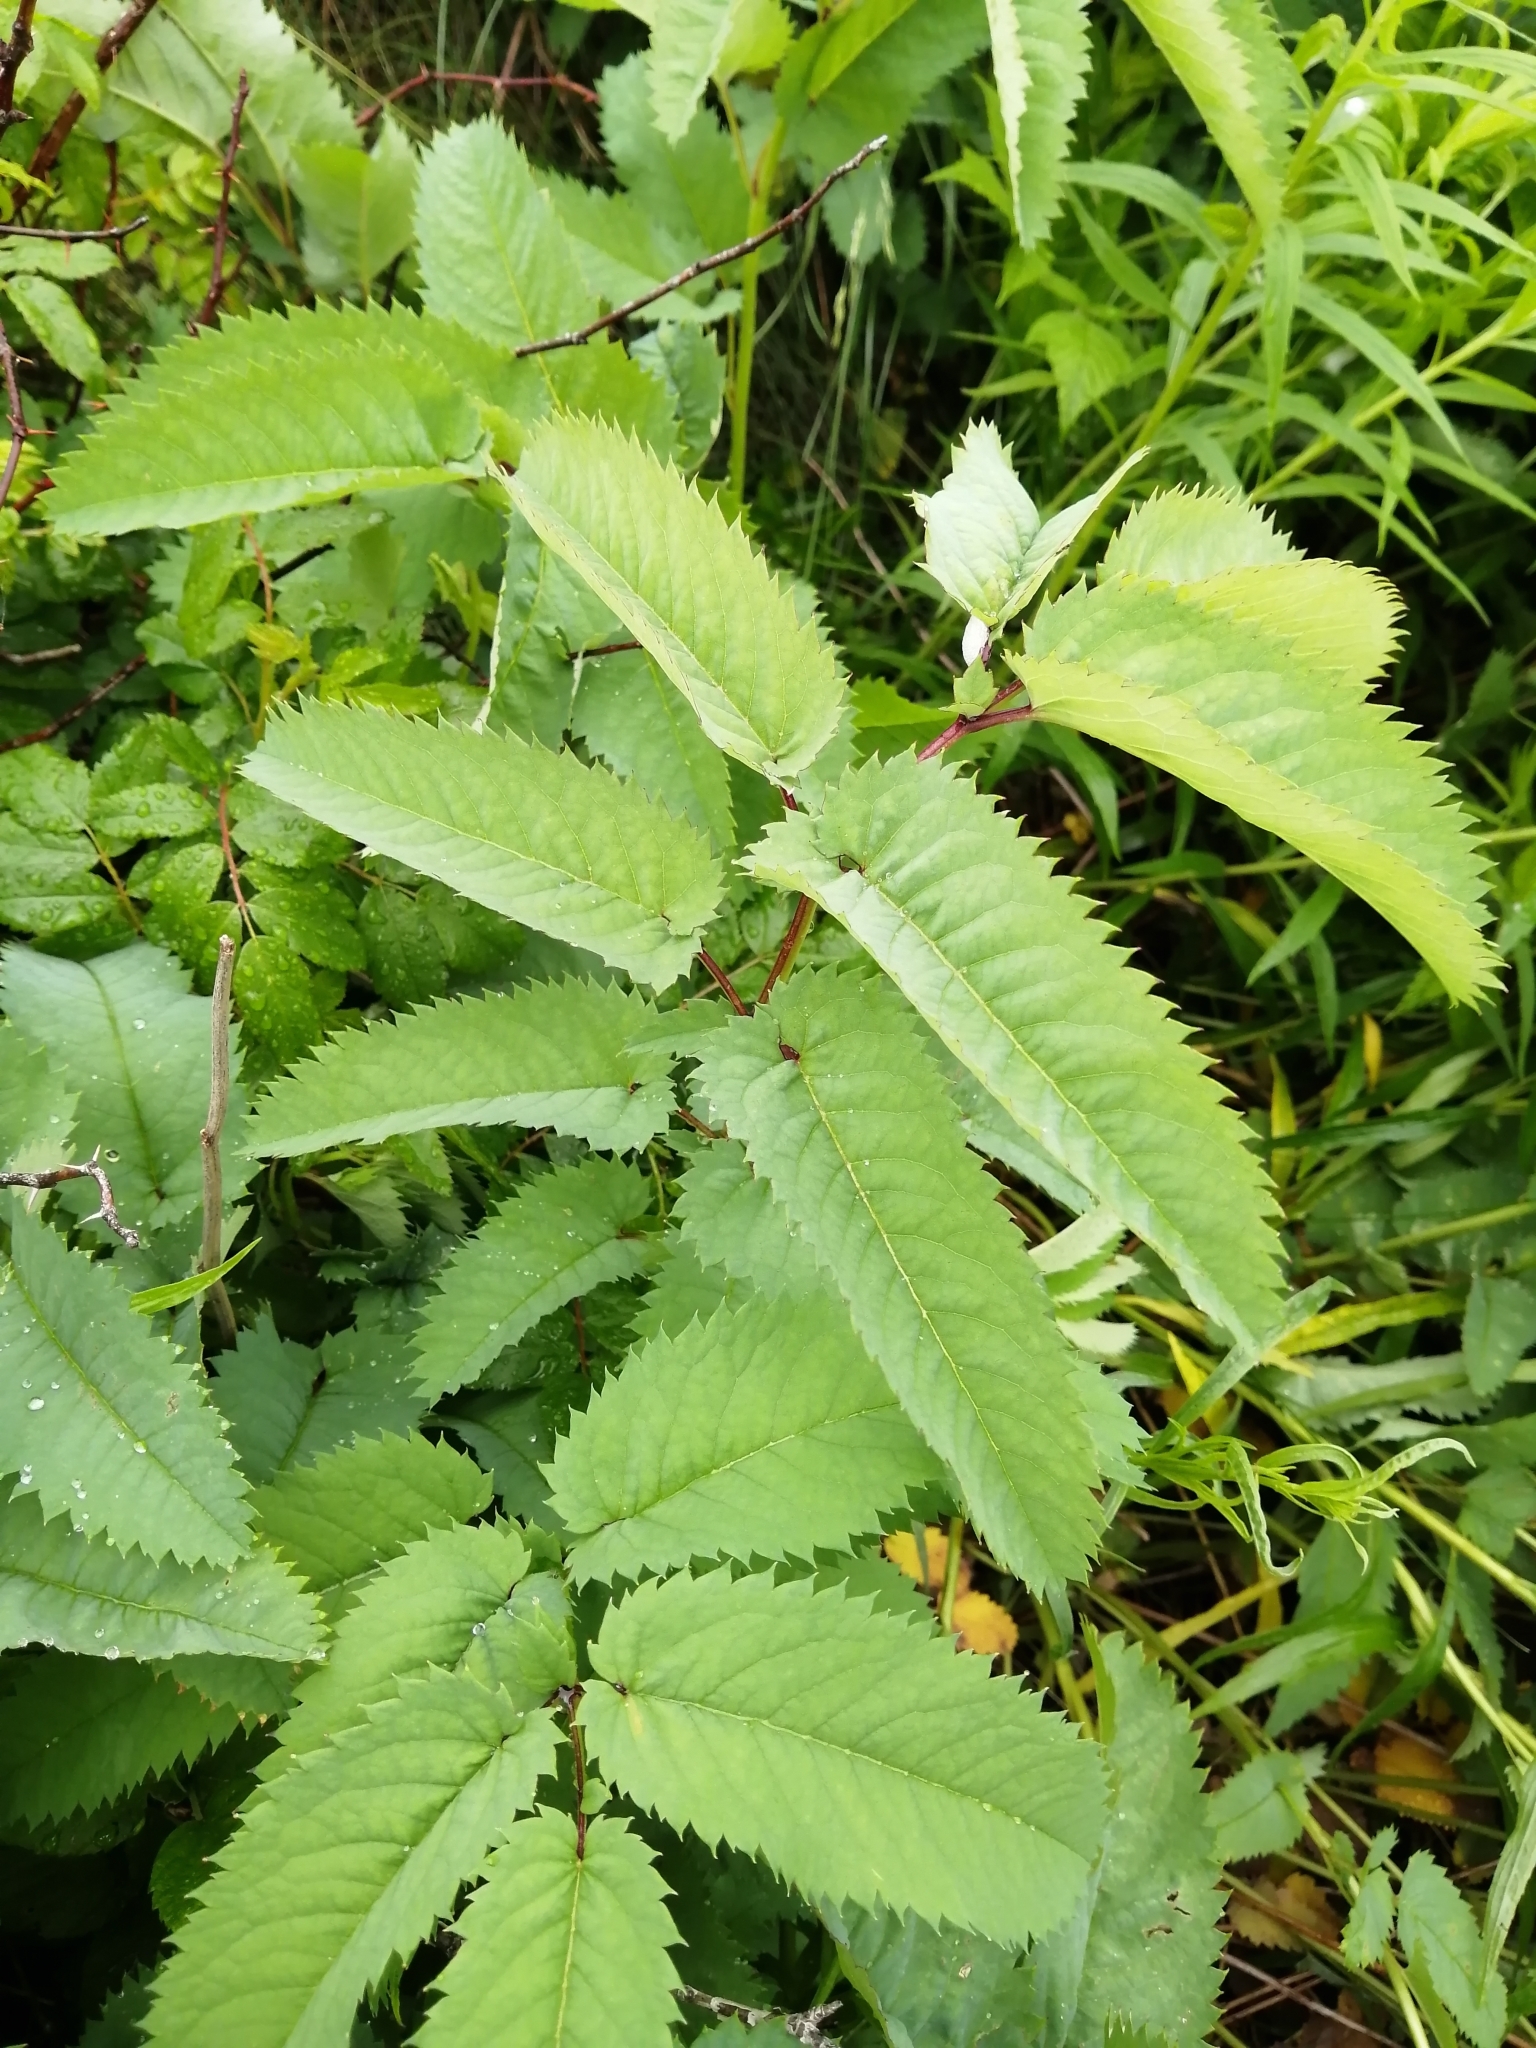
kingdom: Plantae
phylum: Tracheophyta
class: Magnoliopsida
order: Rosales
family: Rosaceae
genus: Sanguisorba
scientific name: Sanguisorba canadensis
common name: White burnet
